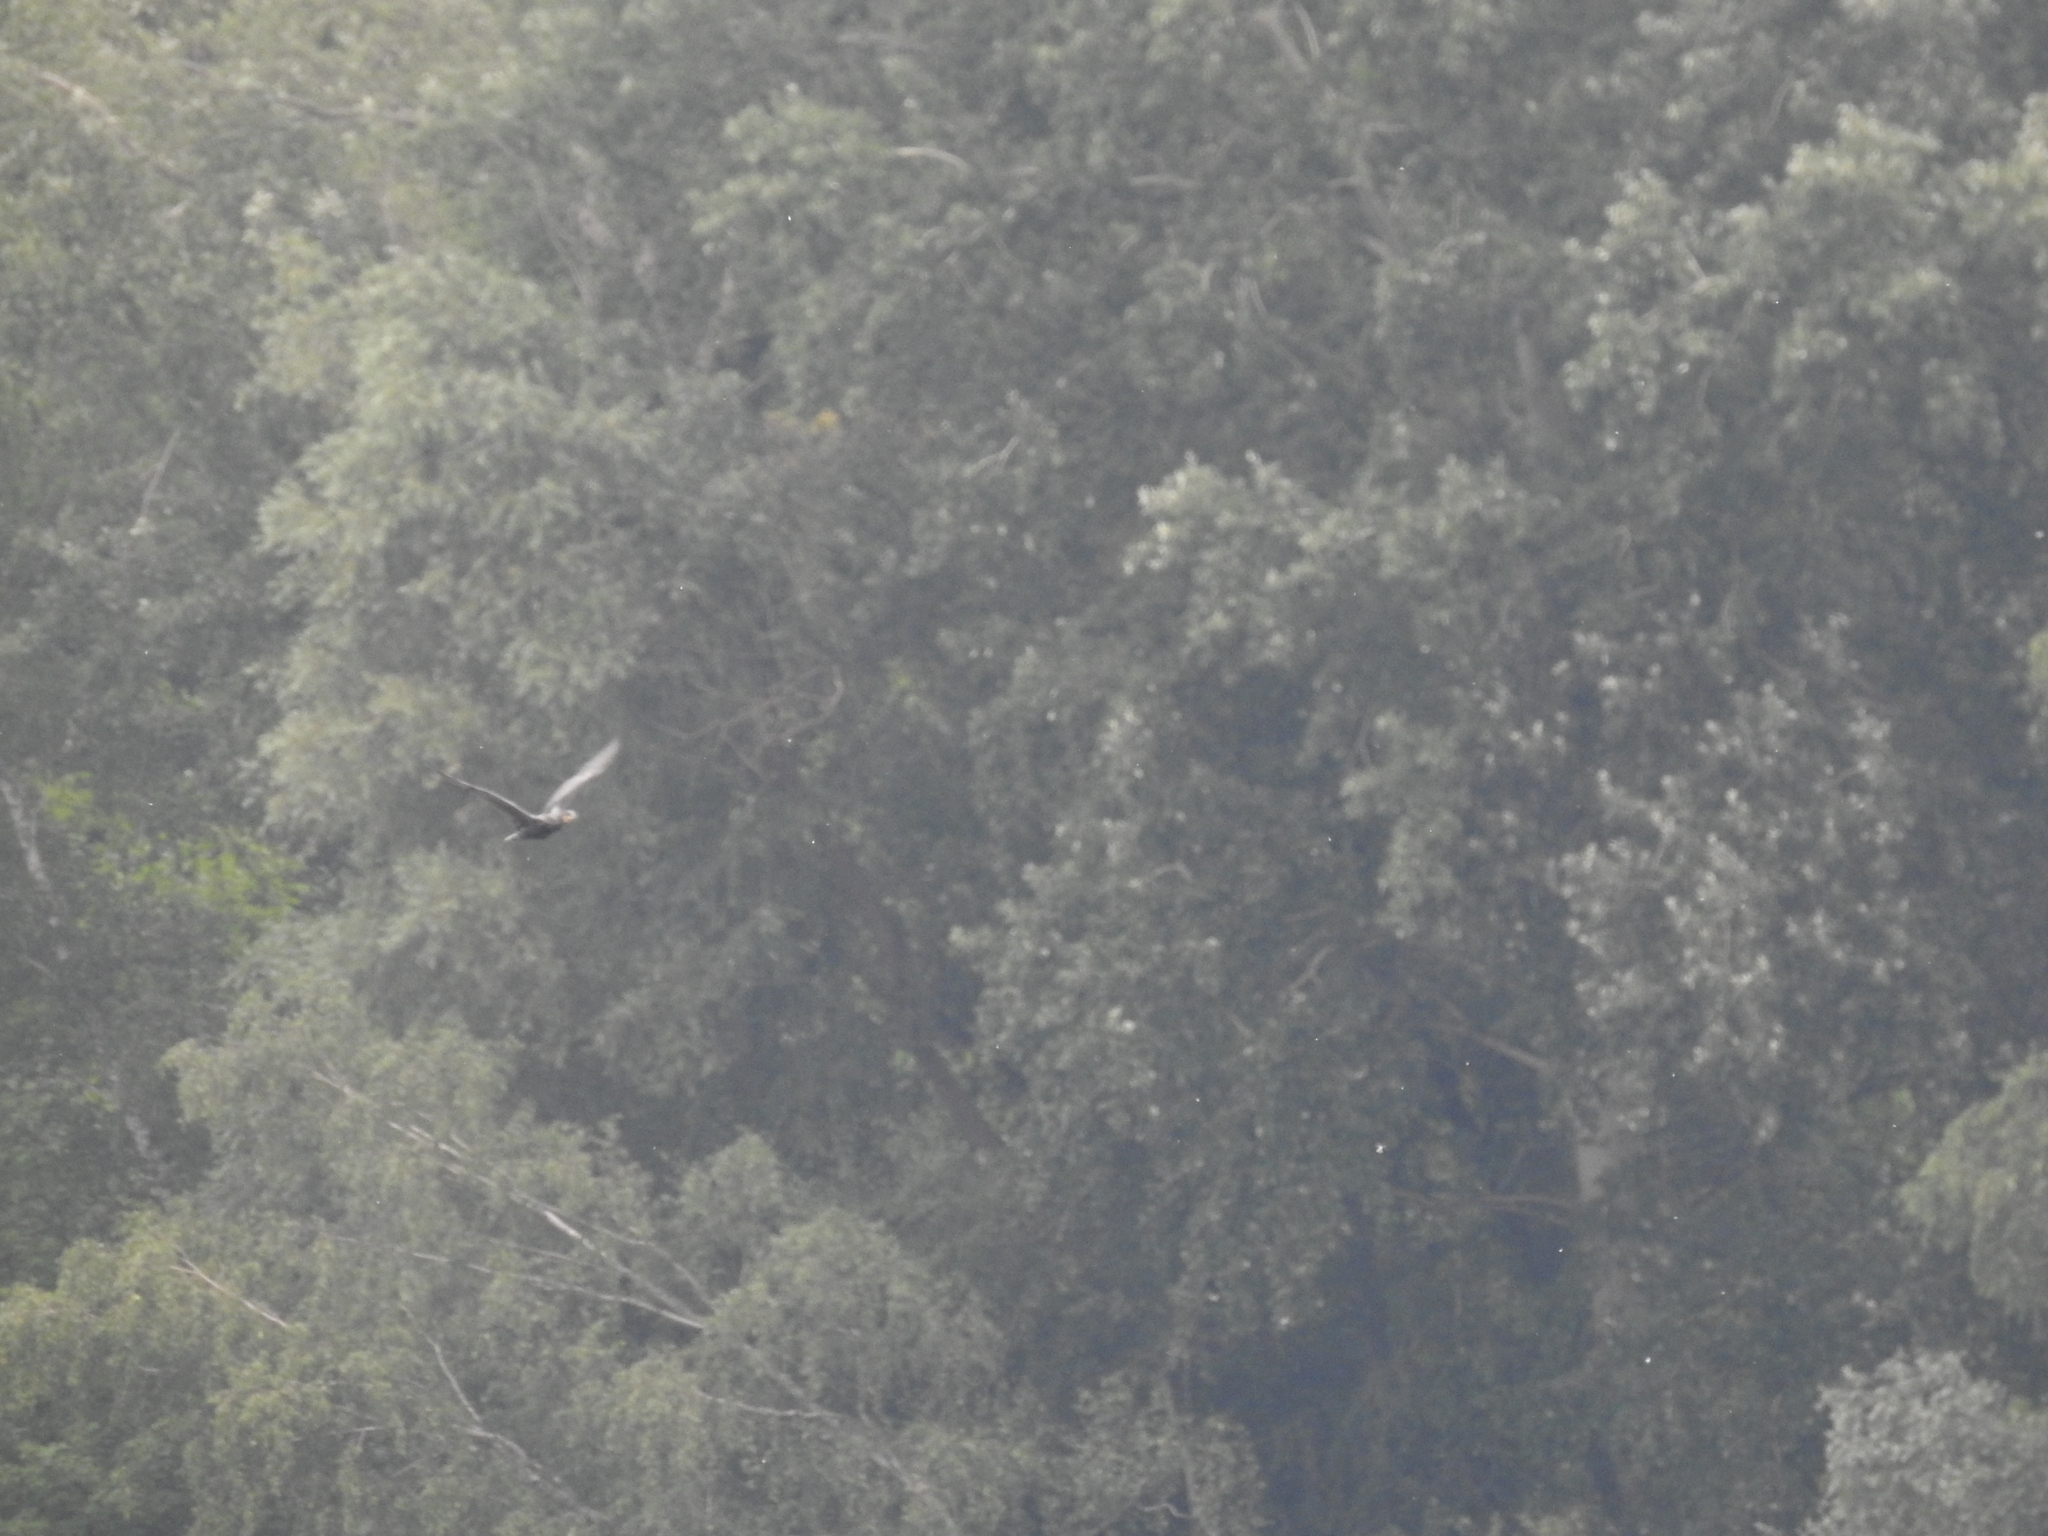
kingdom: Animalia
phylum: Chordata
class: Aves
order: Suliformes
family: Phalacrocoracidae
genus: Phalacrocorax
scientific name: Phalacrocorax carbo
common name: Great cormorant
